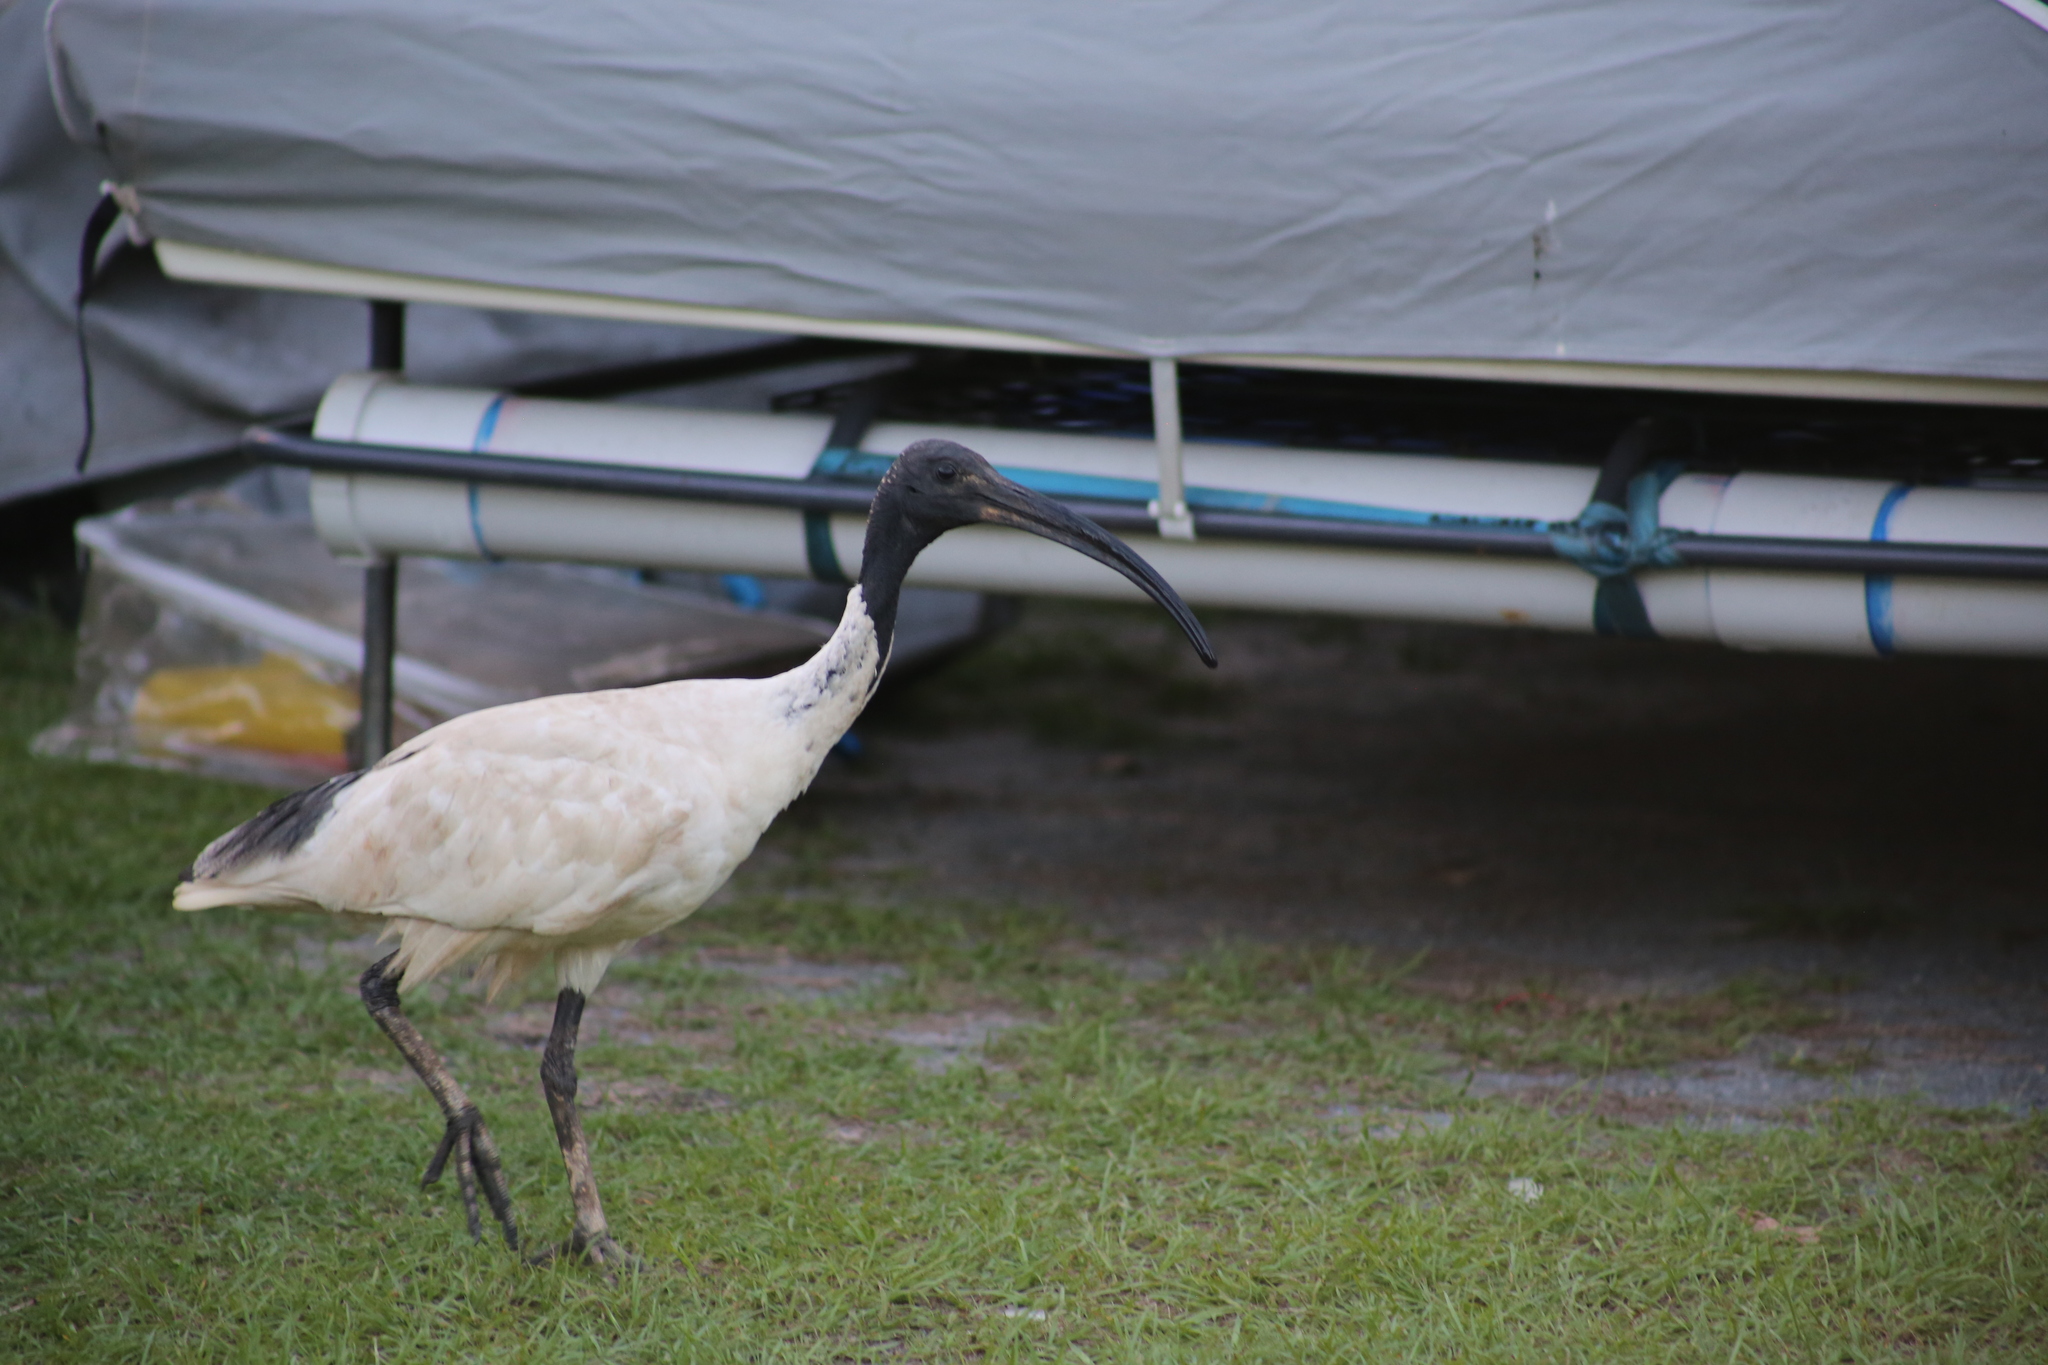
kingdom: Animalia
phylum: Chordata
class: Aves
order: Pelecaniformes
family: Threskiornithidae
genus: Threskiornis
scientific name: Threskiornis molucca
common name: Australian white ibis
